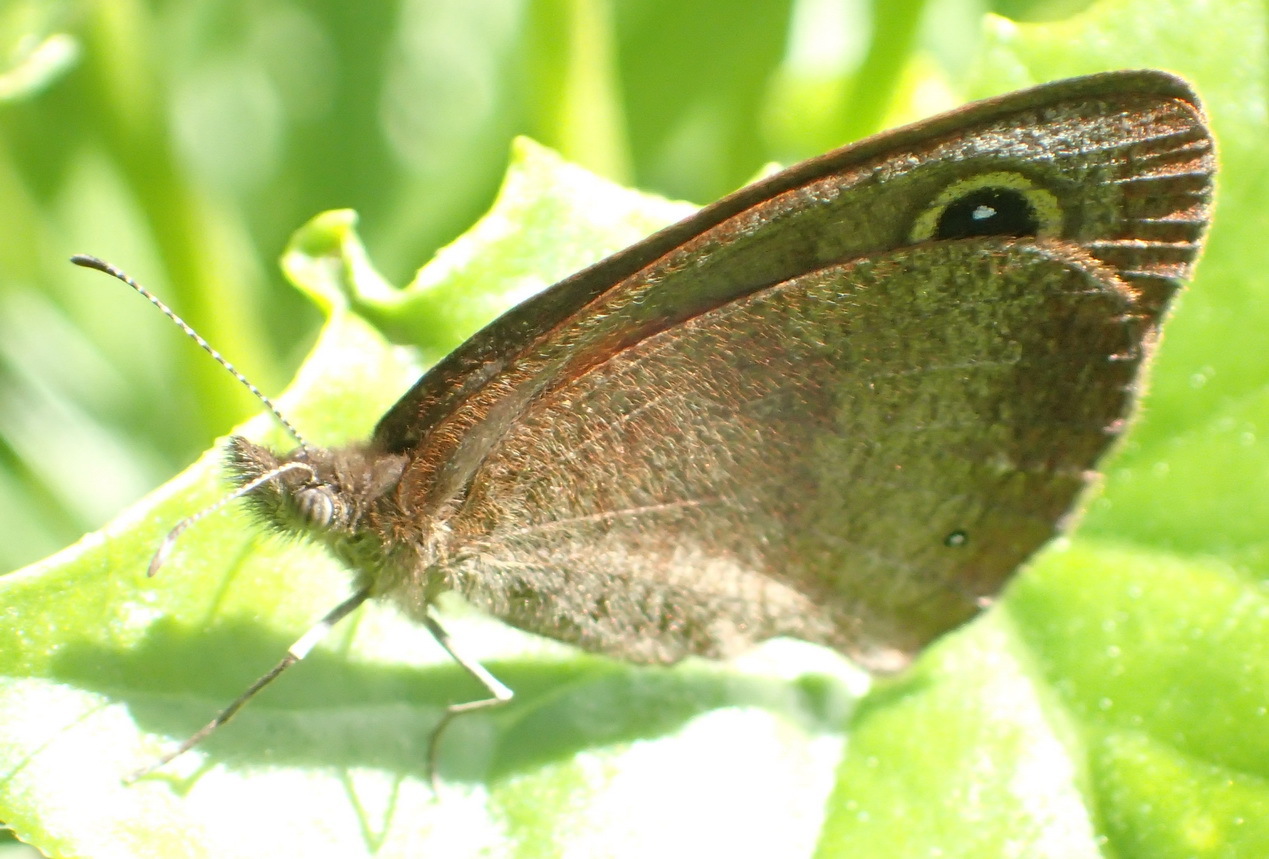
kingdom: Animalia
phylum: Arthropoda
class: Insecta
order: Lepidoptera
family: Nymphalidae
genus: Stygionympha
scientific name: Stygionympha vigilans
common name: Western hillside brown
